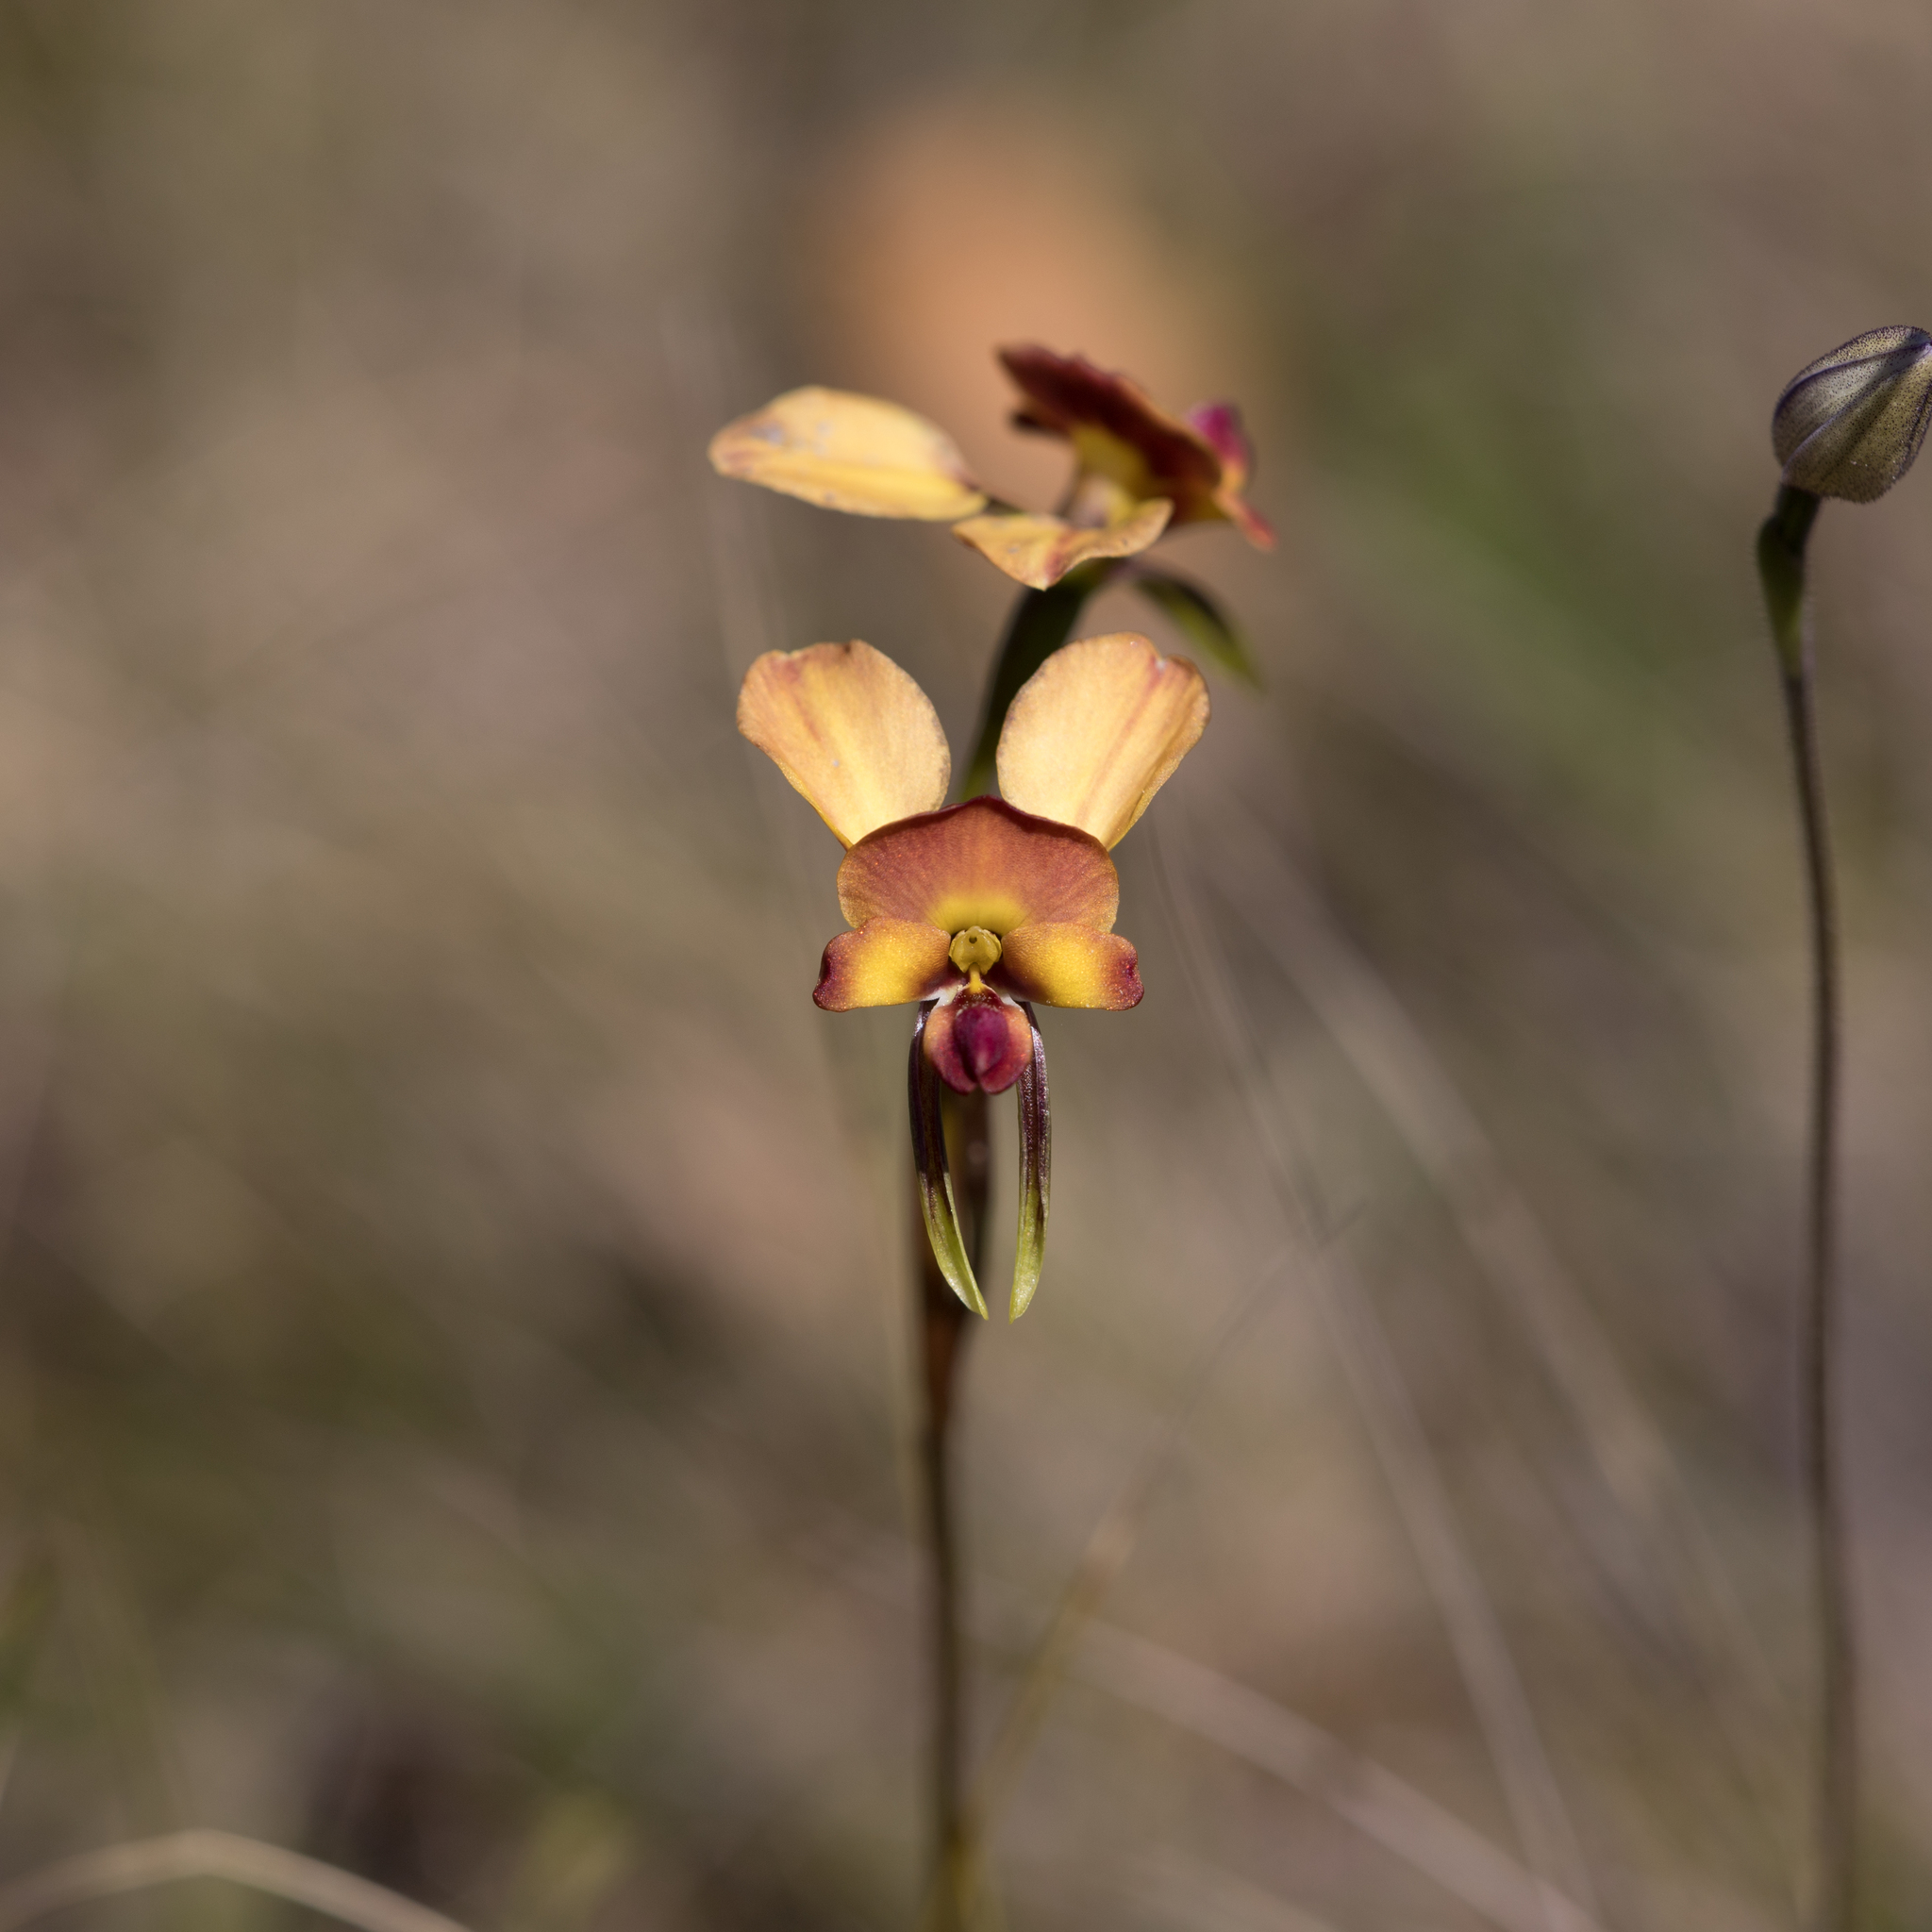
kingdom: Plantae
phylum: Tracheophyta
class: Liliopsida
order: Asparagales
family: Orchidaceae
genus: Diuris
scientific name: Diuris orientis
